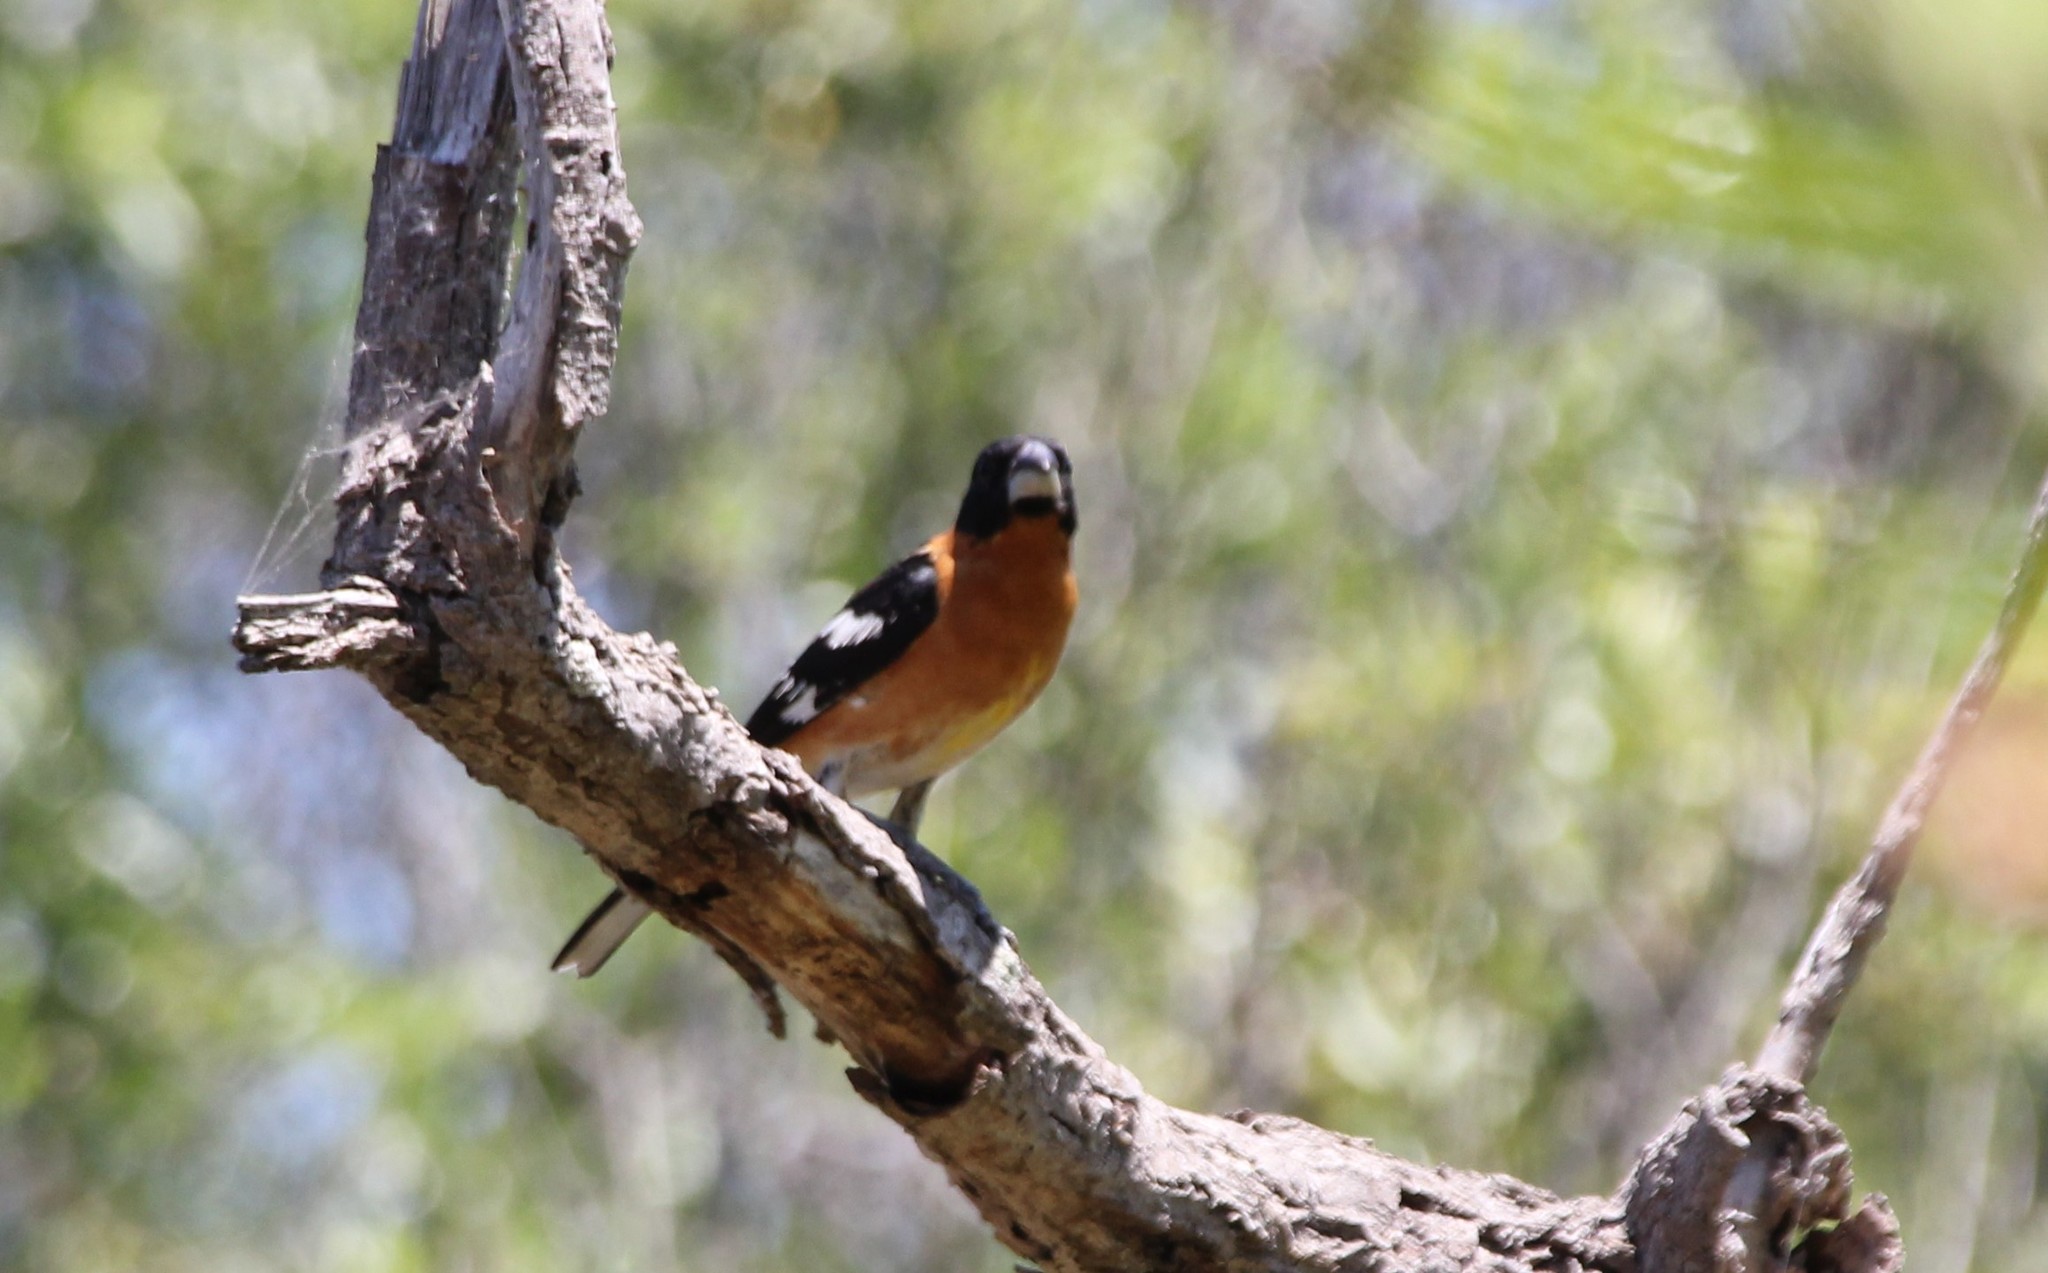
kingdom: Animalia
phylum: Chordata
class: Aves
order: Passeriformes
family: Cardinalidae
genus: Pheucticus
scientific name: Pheucticus melanocephalus
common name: Black-headed grosbeak
